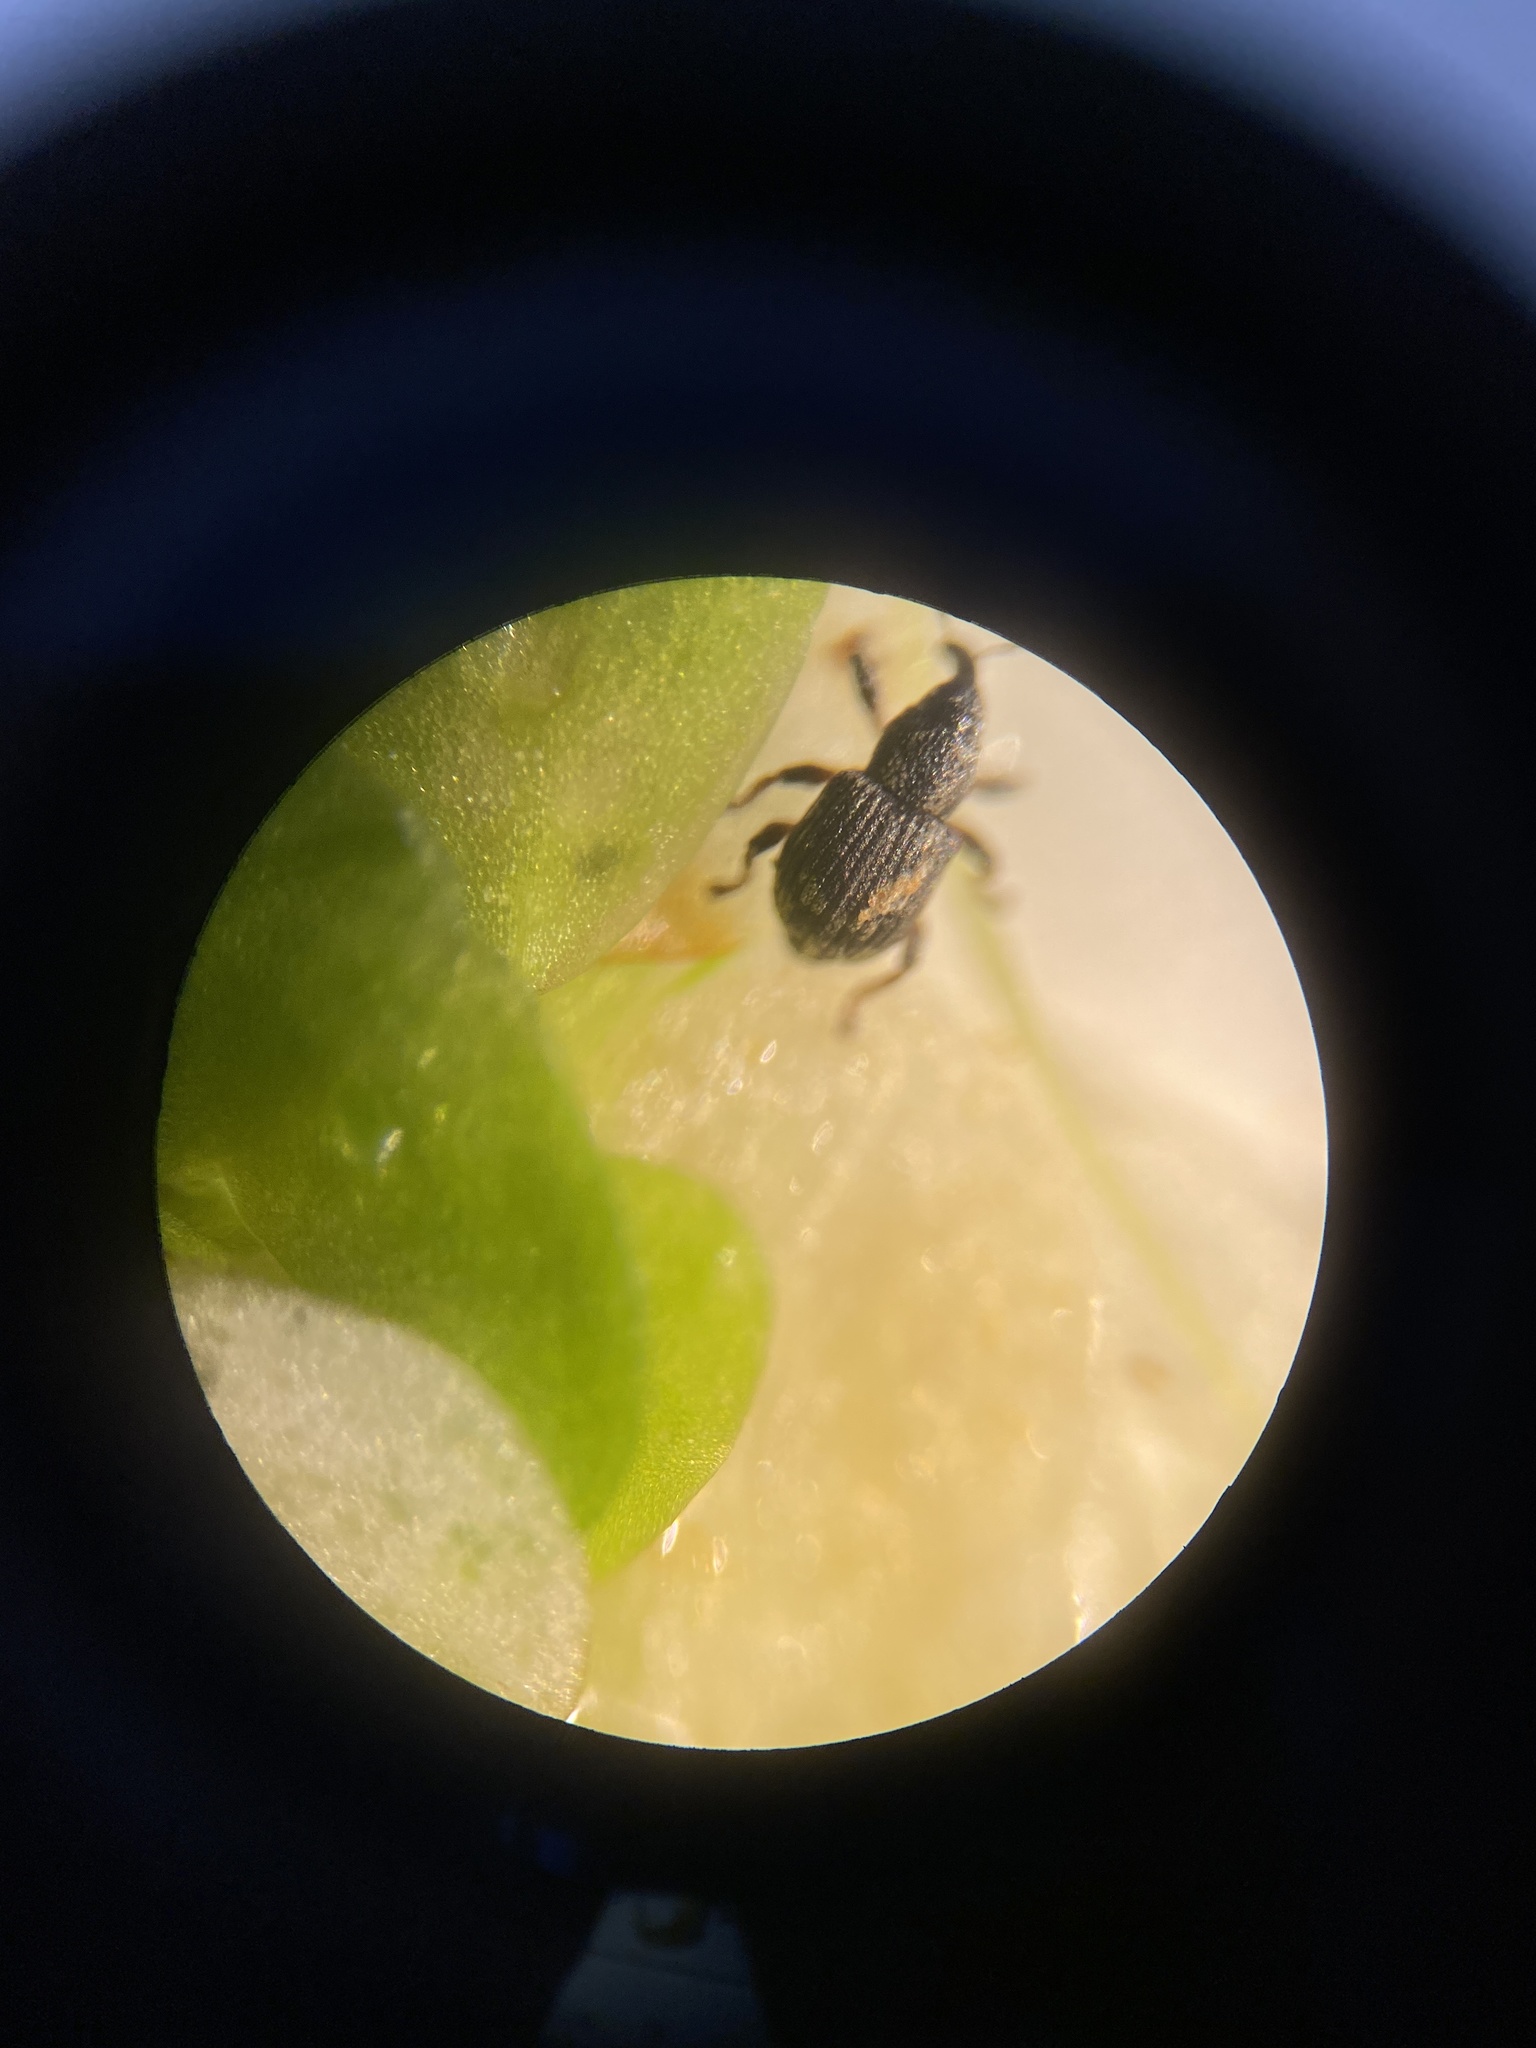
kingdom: Animalia
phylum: Arthropoda
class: Insecta
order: Coleoptera
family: Brachyceridae
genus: Tanysphyrus
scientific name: Tanysphyrus lemnae
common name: Duckweed weevil
